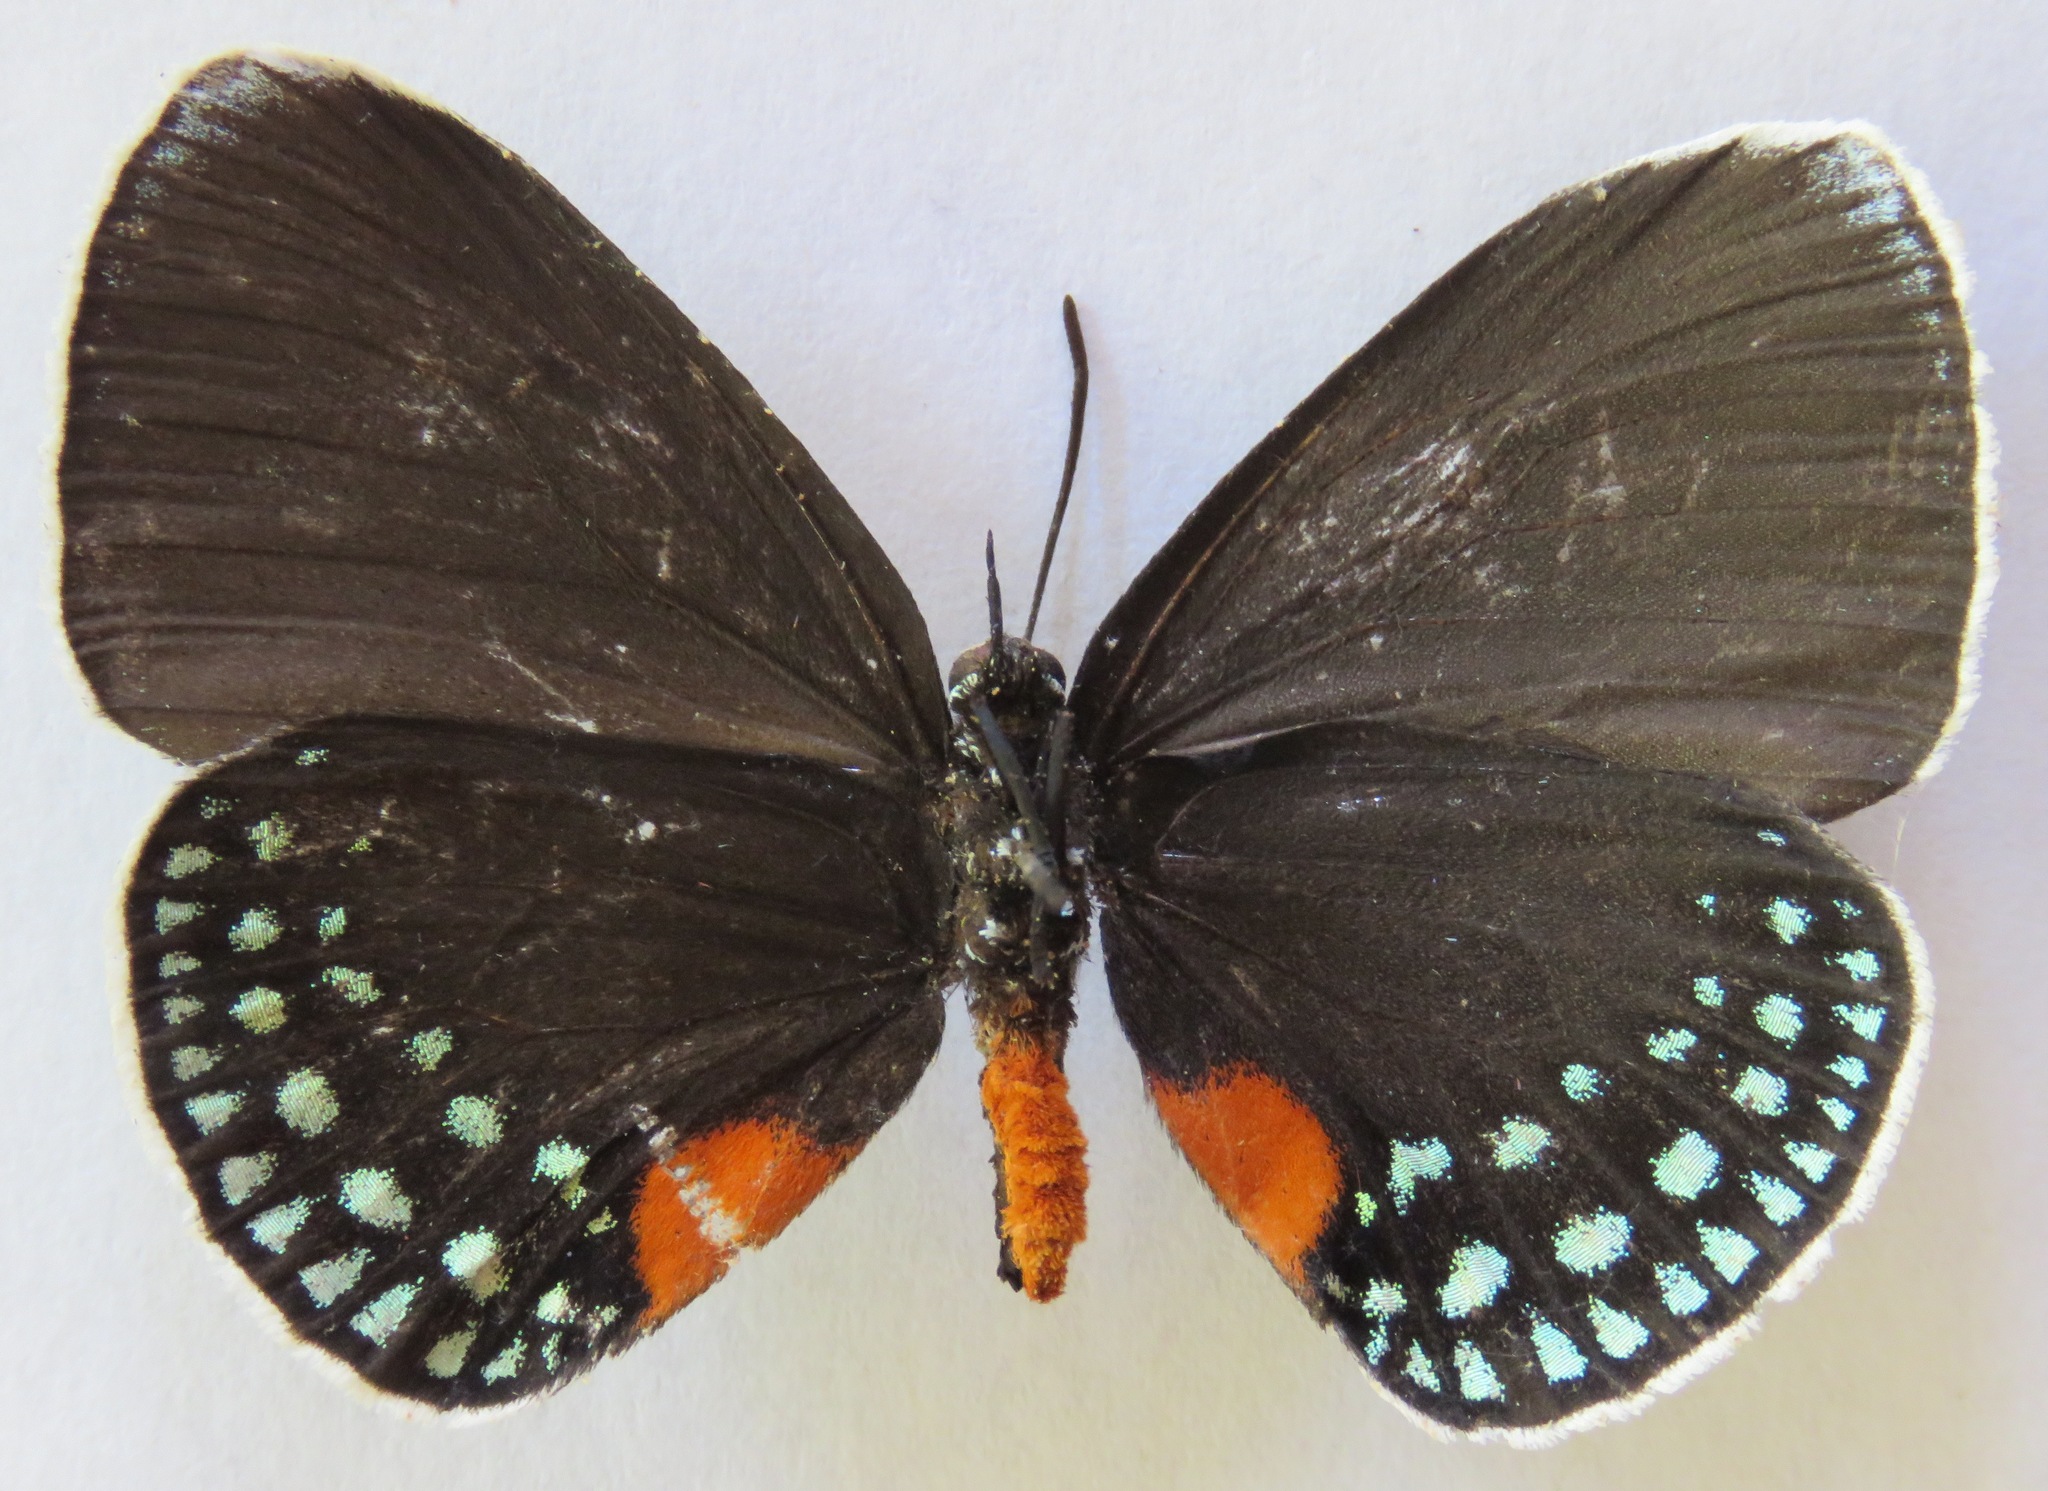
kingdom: Animalia
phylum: Arthropoda
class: Insecta
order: Lepidoptera
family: Lycaenidae
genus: Eumaeus
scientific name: Eumaeus godartii
